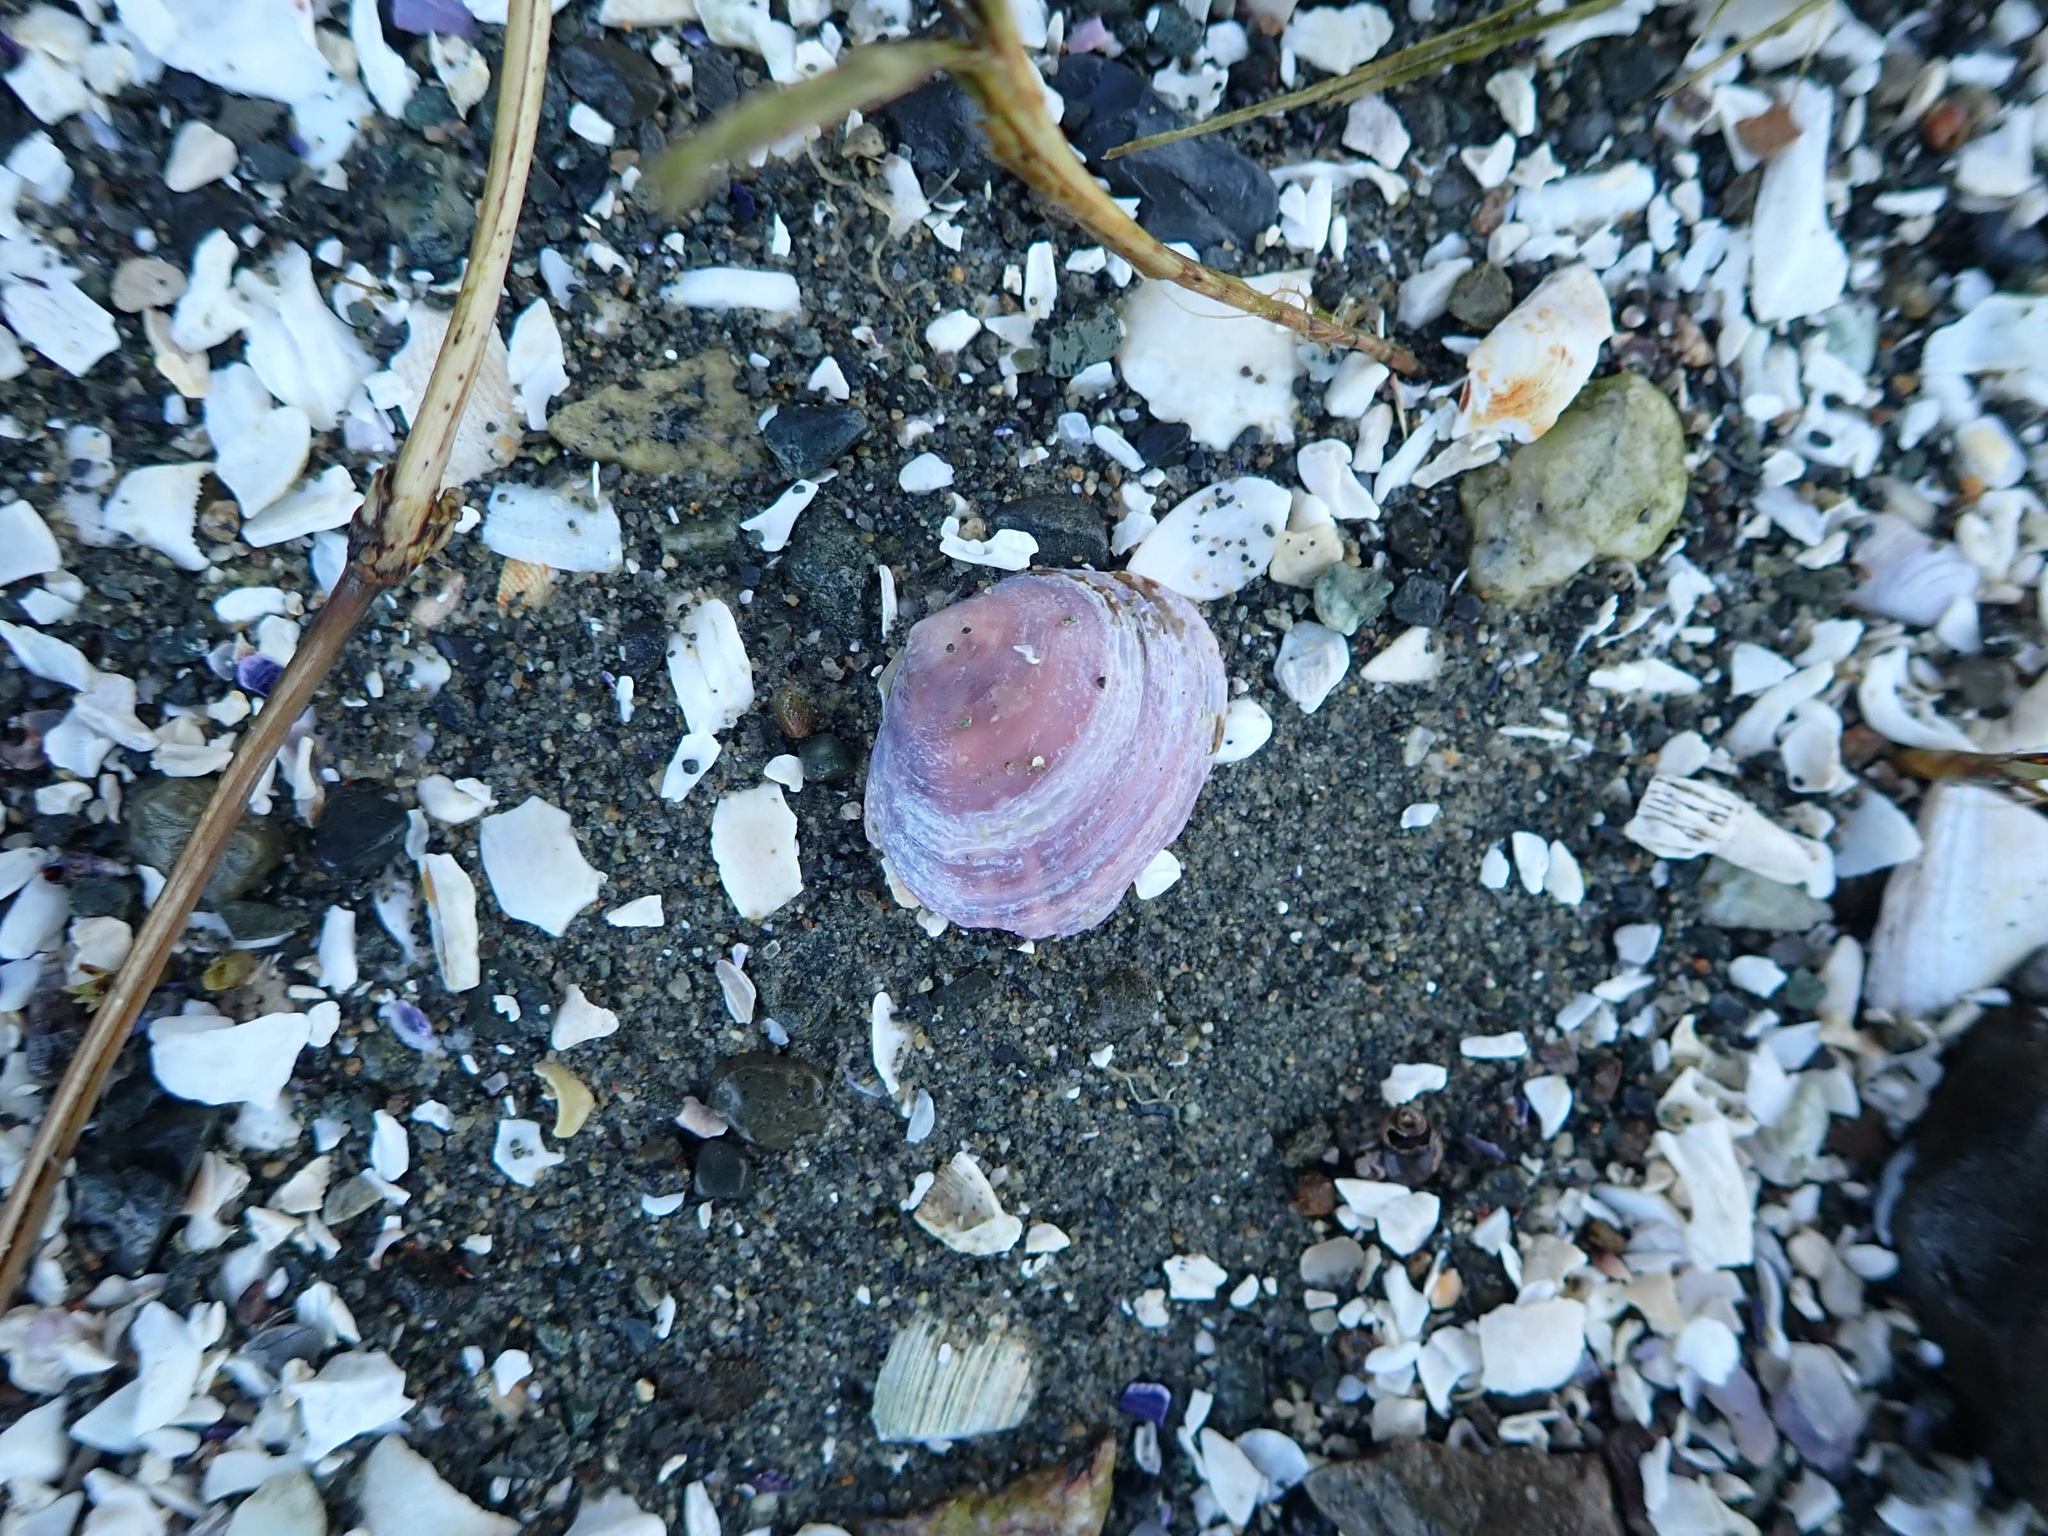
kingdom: Animalia
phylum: Mollusca
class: Bivalvia
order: Cardiida
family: Psammobiidae
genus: Nuttallia
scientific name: Nuttallia obscurata
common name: Purple mahogany-clam
